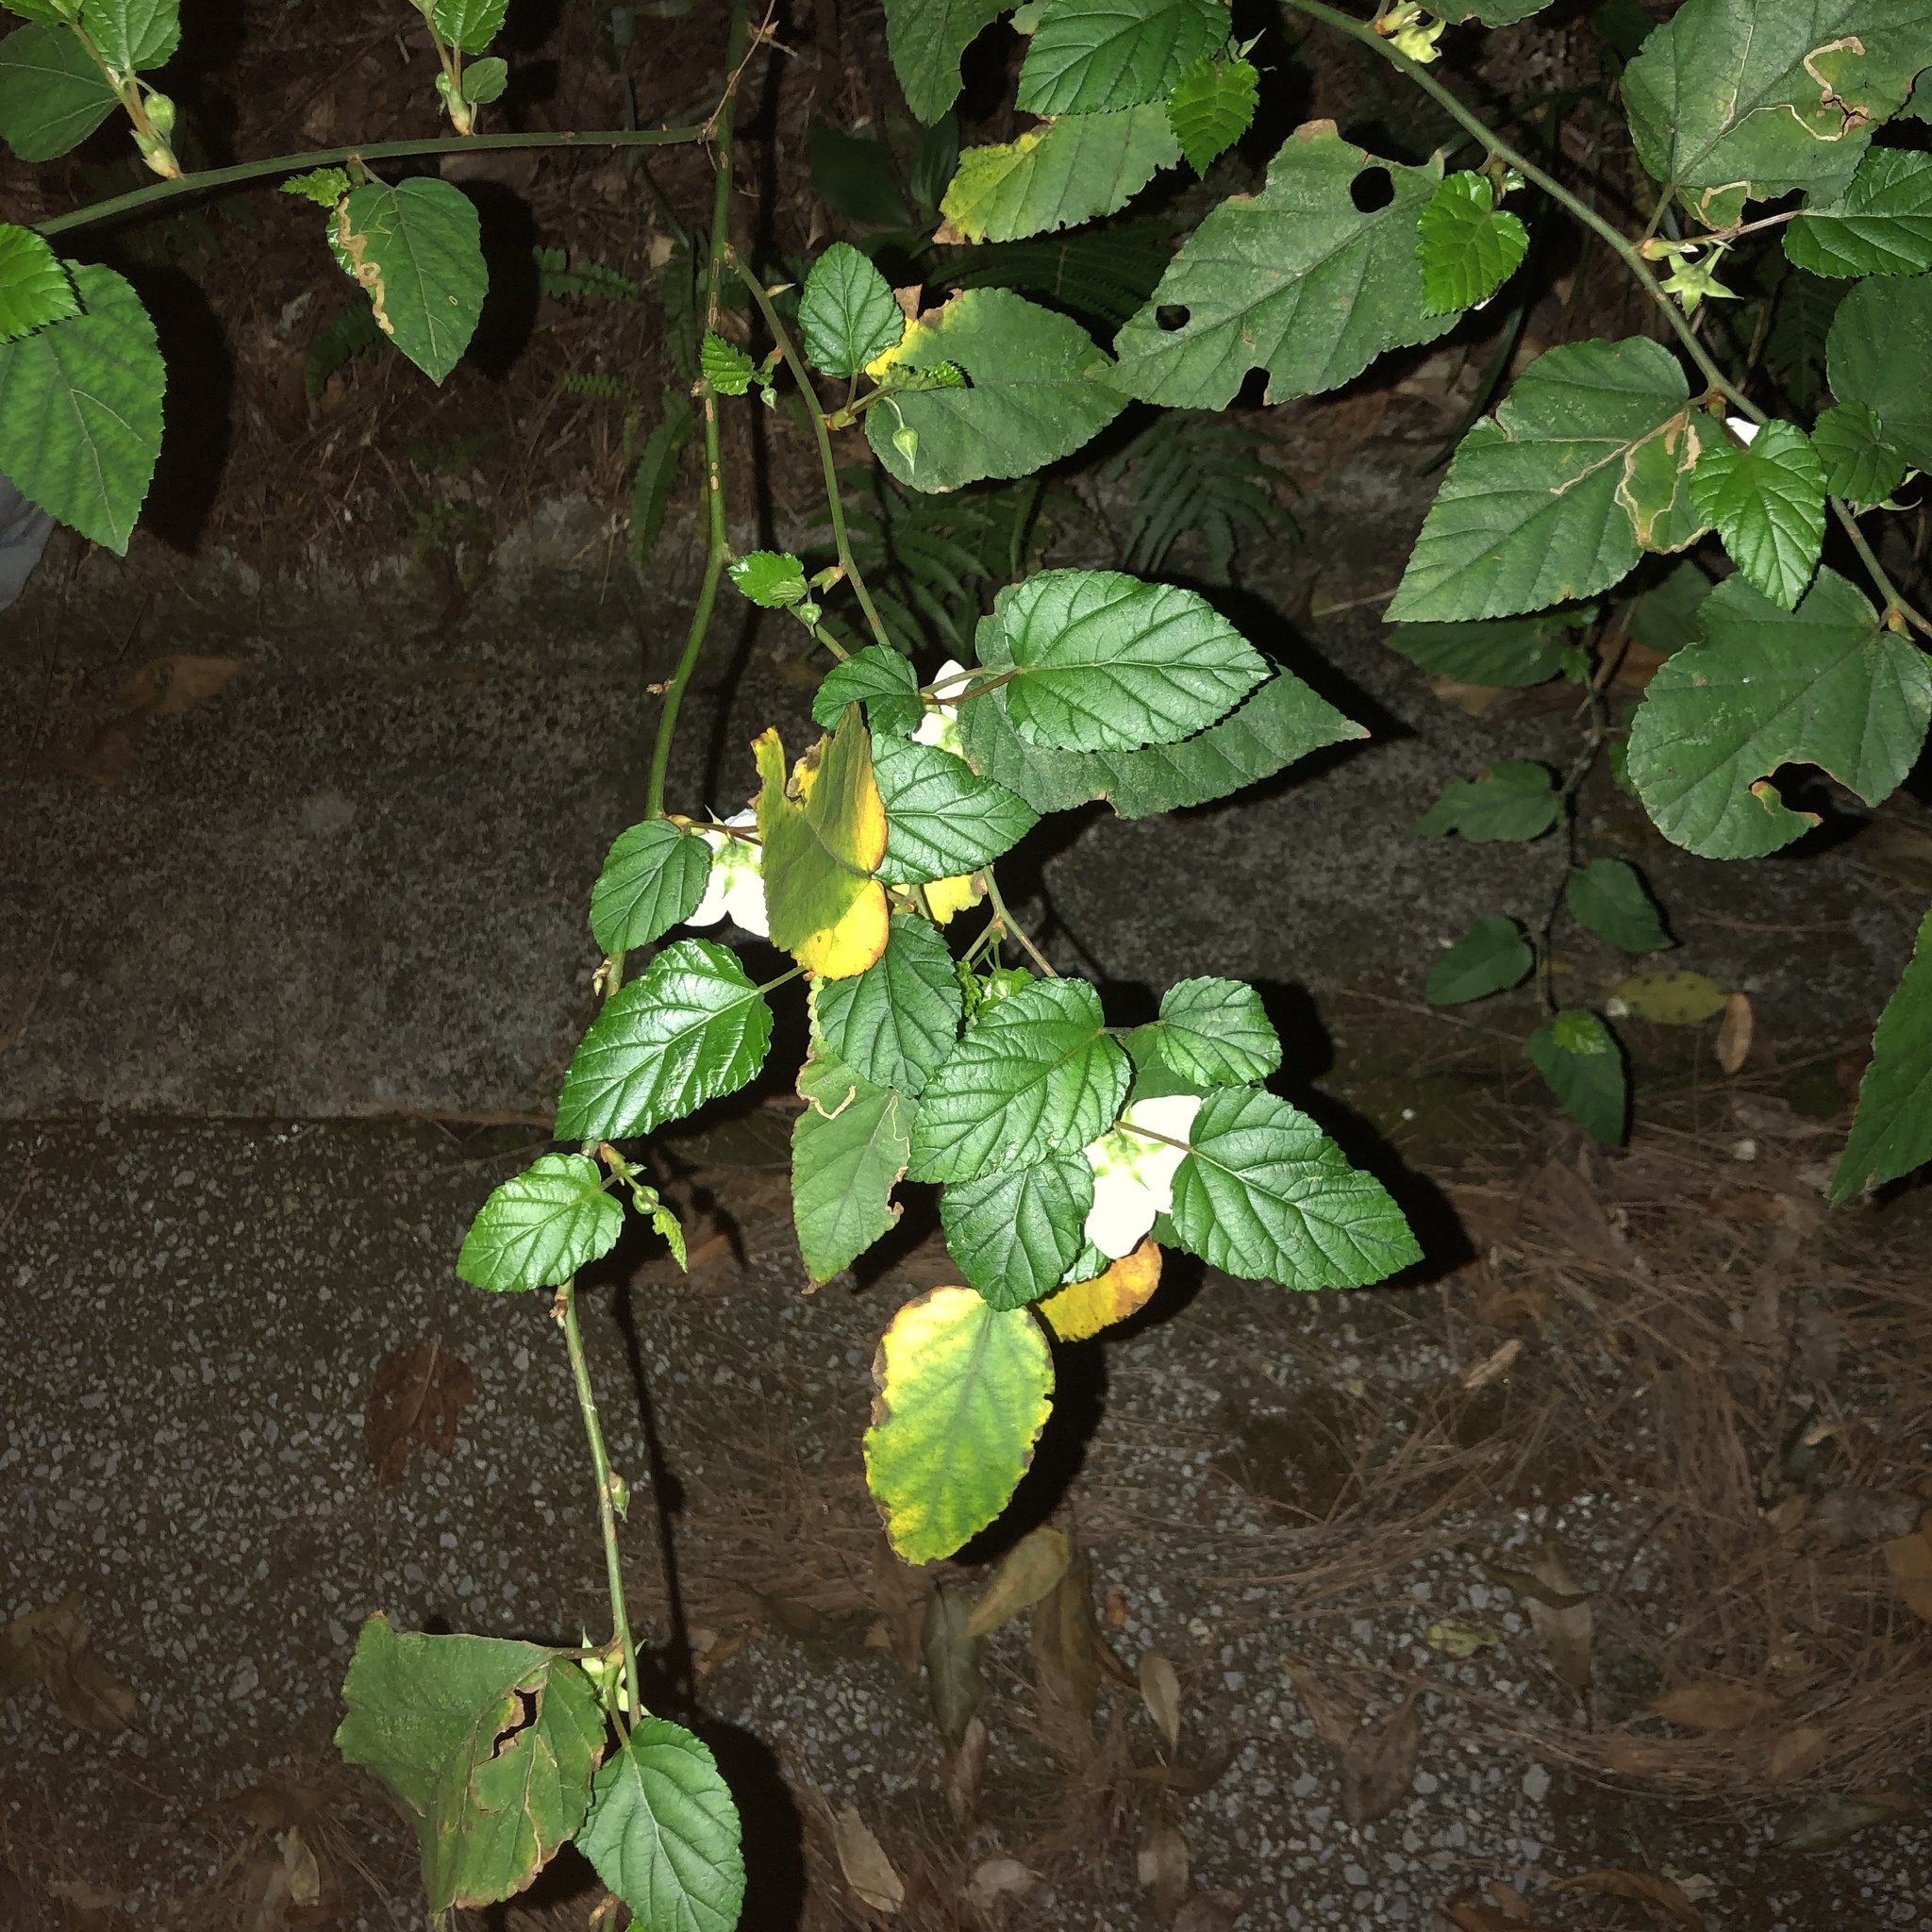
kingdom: Plantae
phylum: Tracheophyta
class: Magnoliopsida
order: Rosales
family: Rosaceae
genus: Rubus
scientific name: Rubus grayanus
